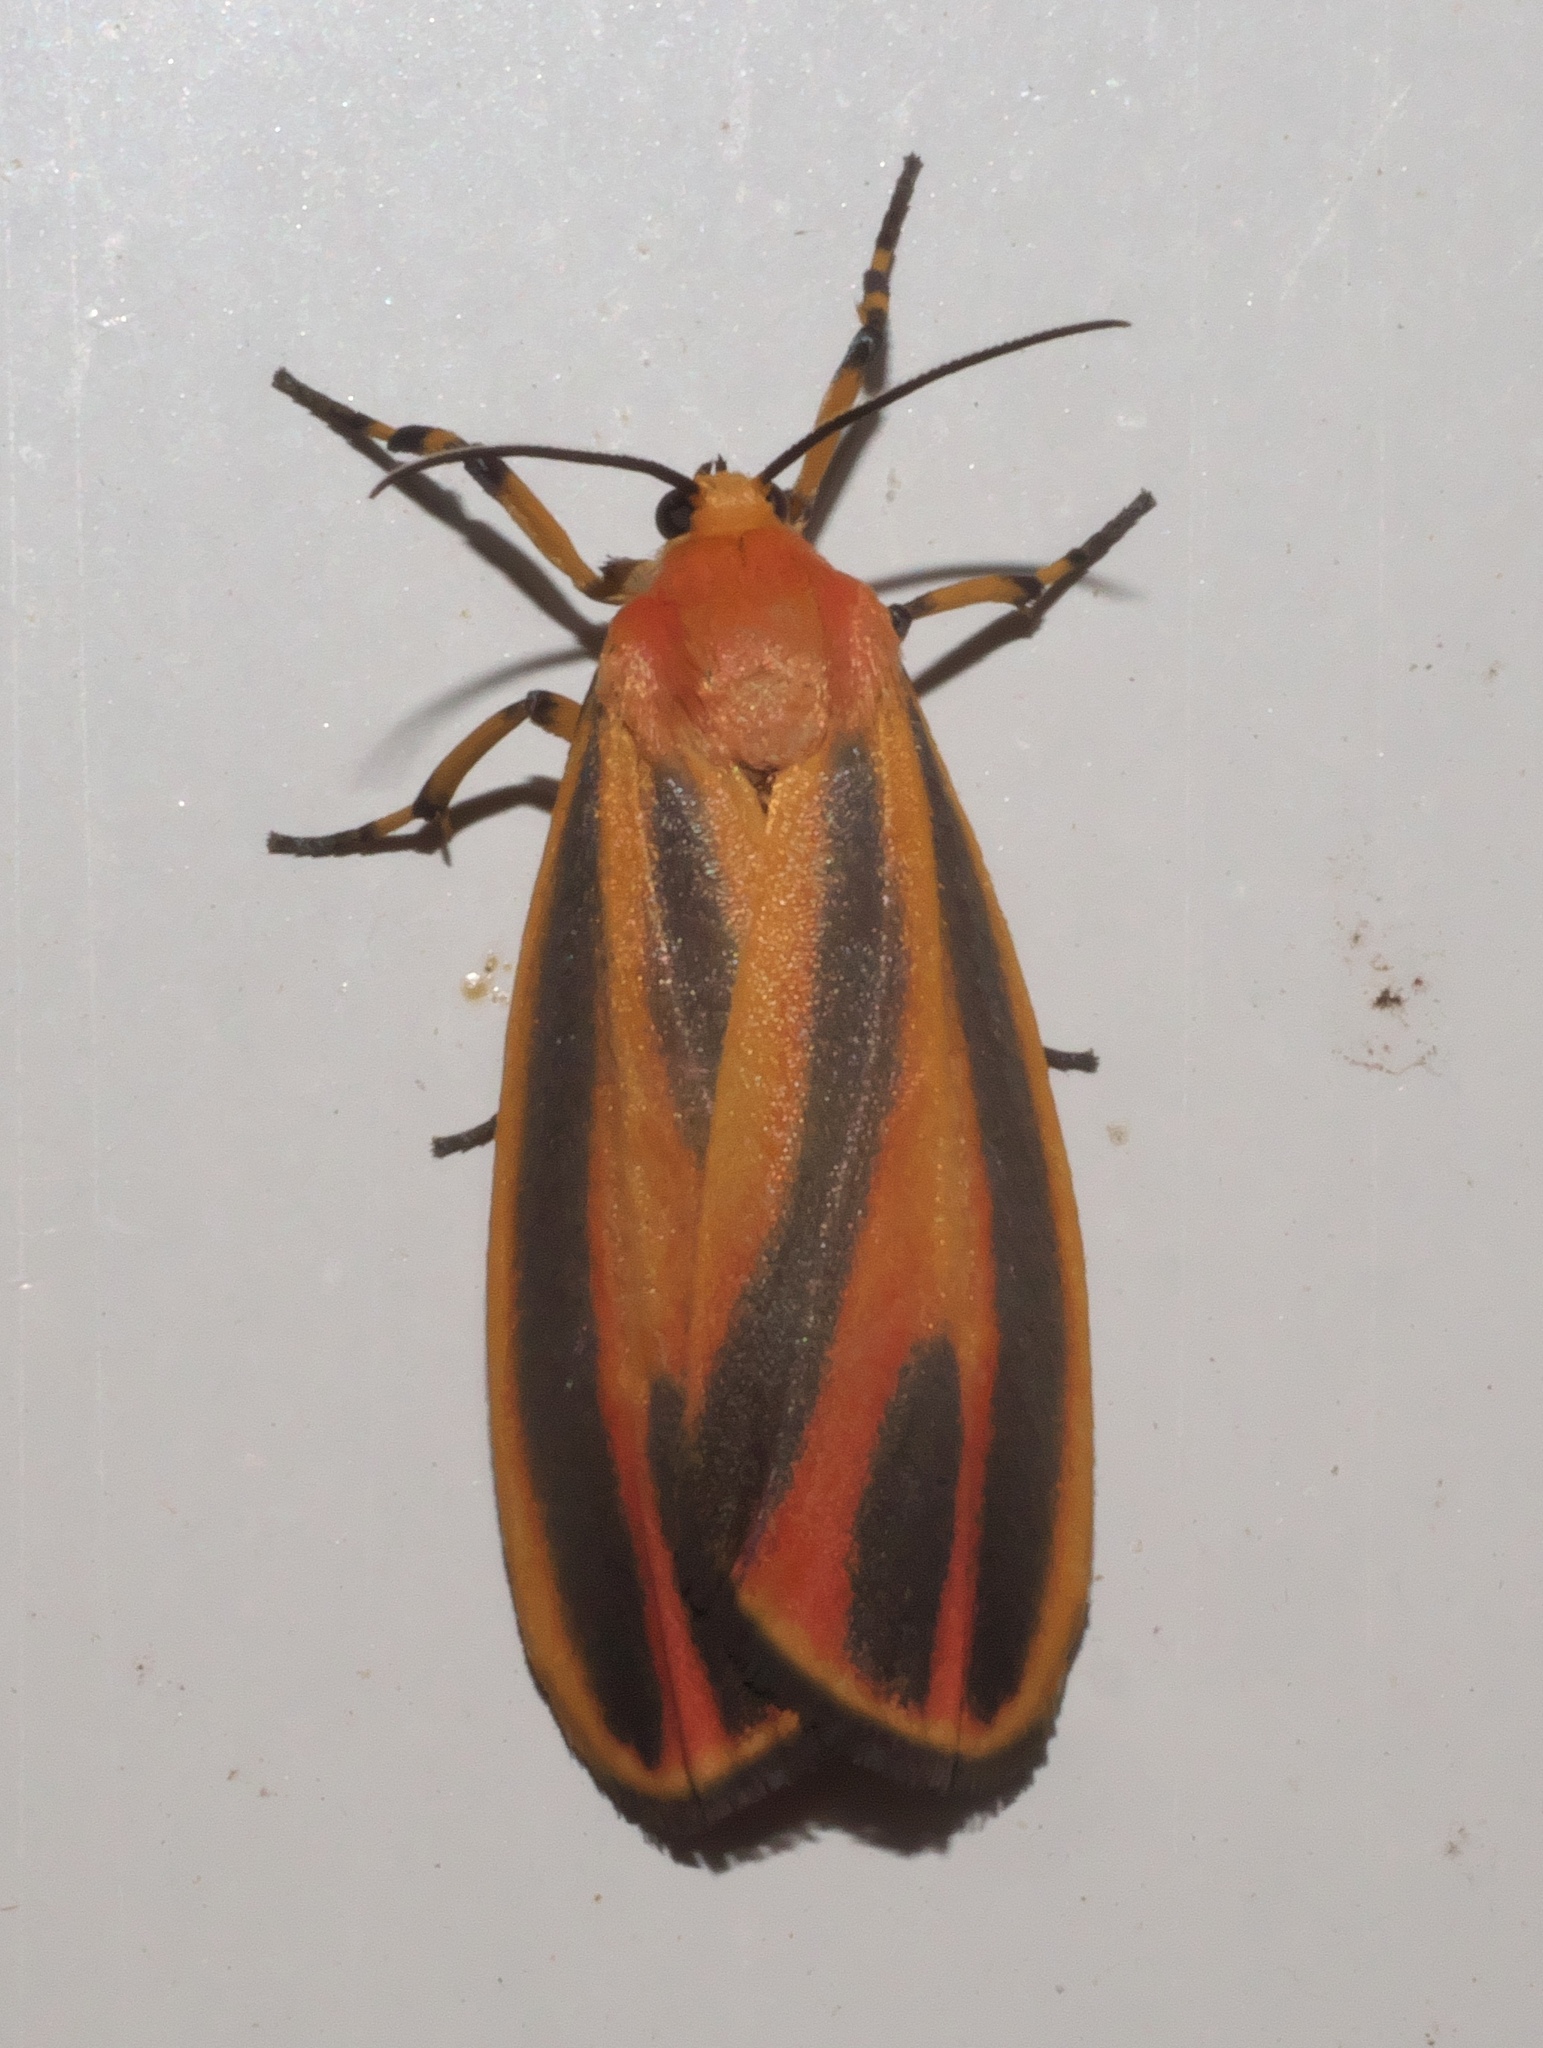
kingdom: Animalia
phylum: Arthropoda
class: Insecta
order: Lepidoptera
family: Erebidae
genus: Hypoprepia
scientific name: Hypoprepia fucosa
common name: Painted lichen moth
